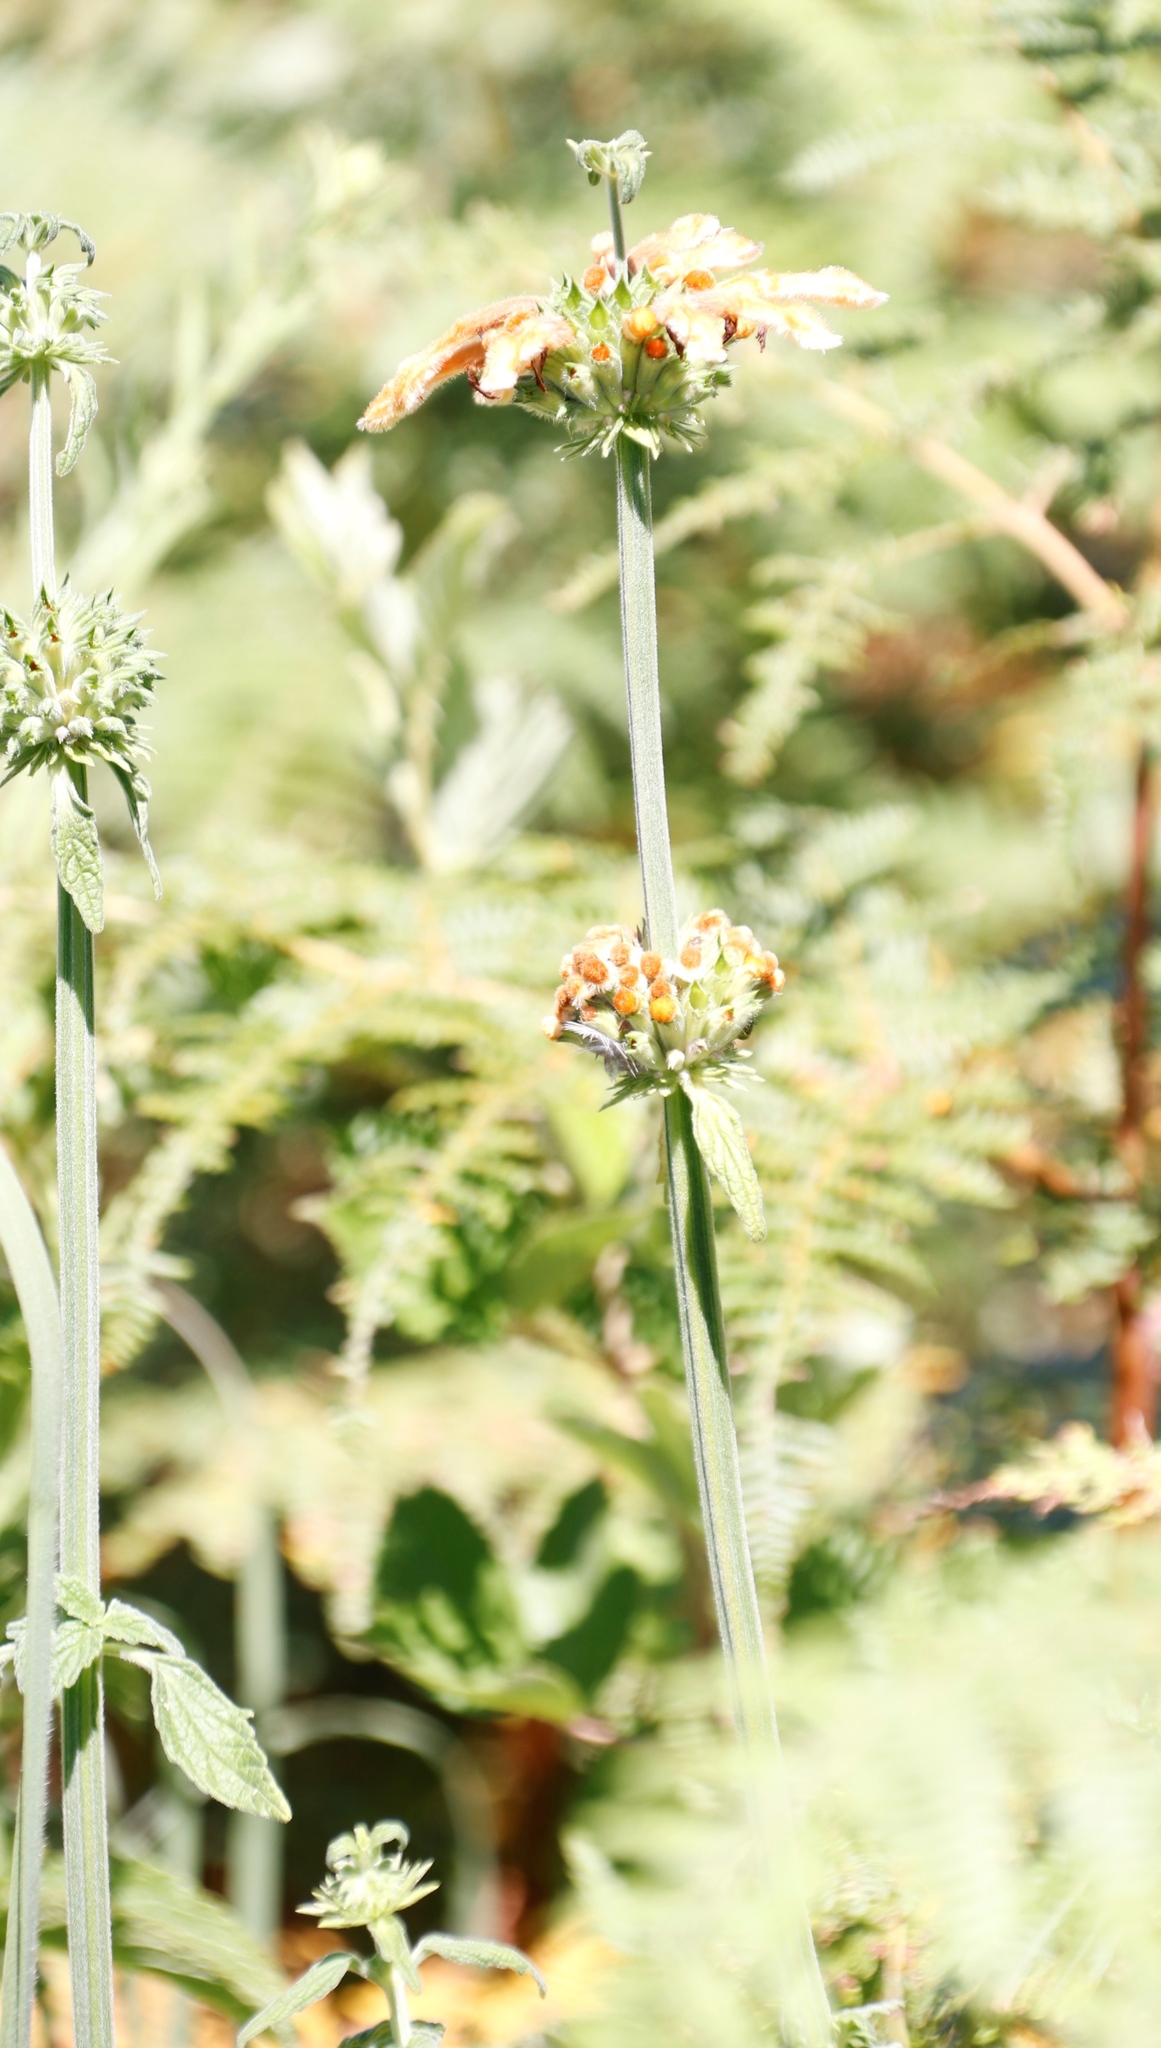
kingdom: Plantae
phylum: Tracheophyta
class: Magnoliopsida
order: Lamiales
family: Lamiaceae
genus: Leonotis
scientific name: Leonotis ocymifolia
